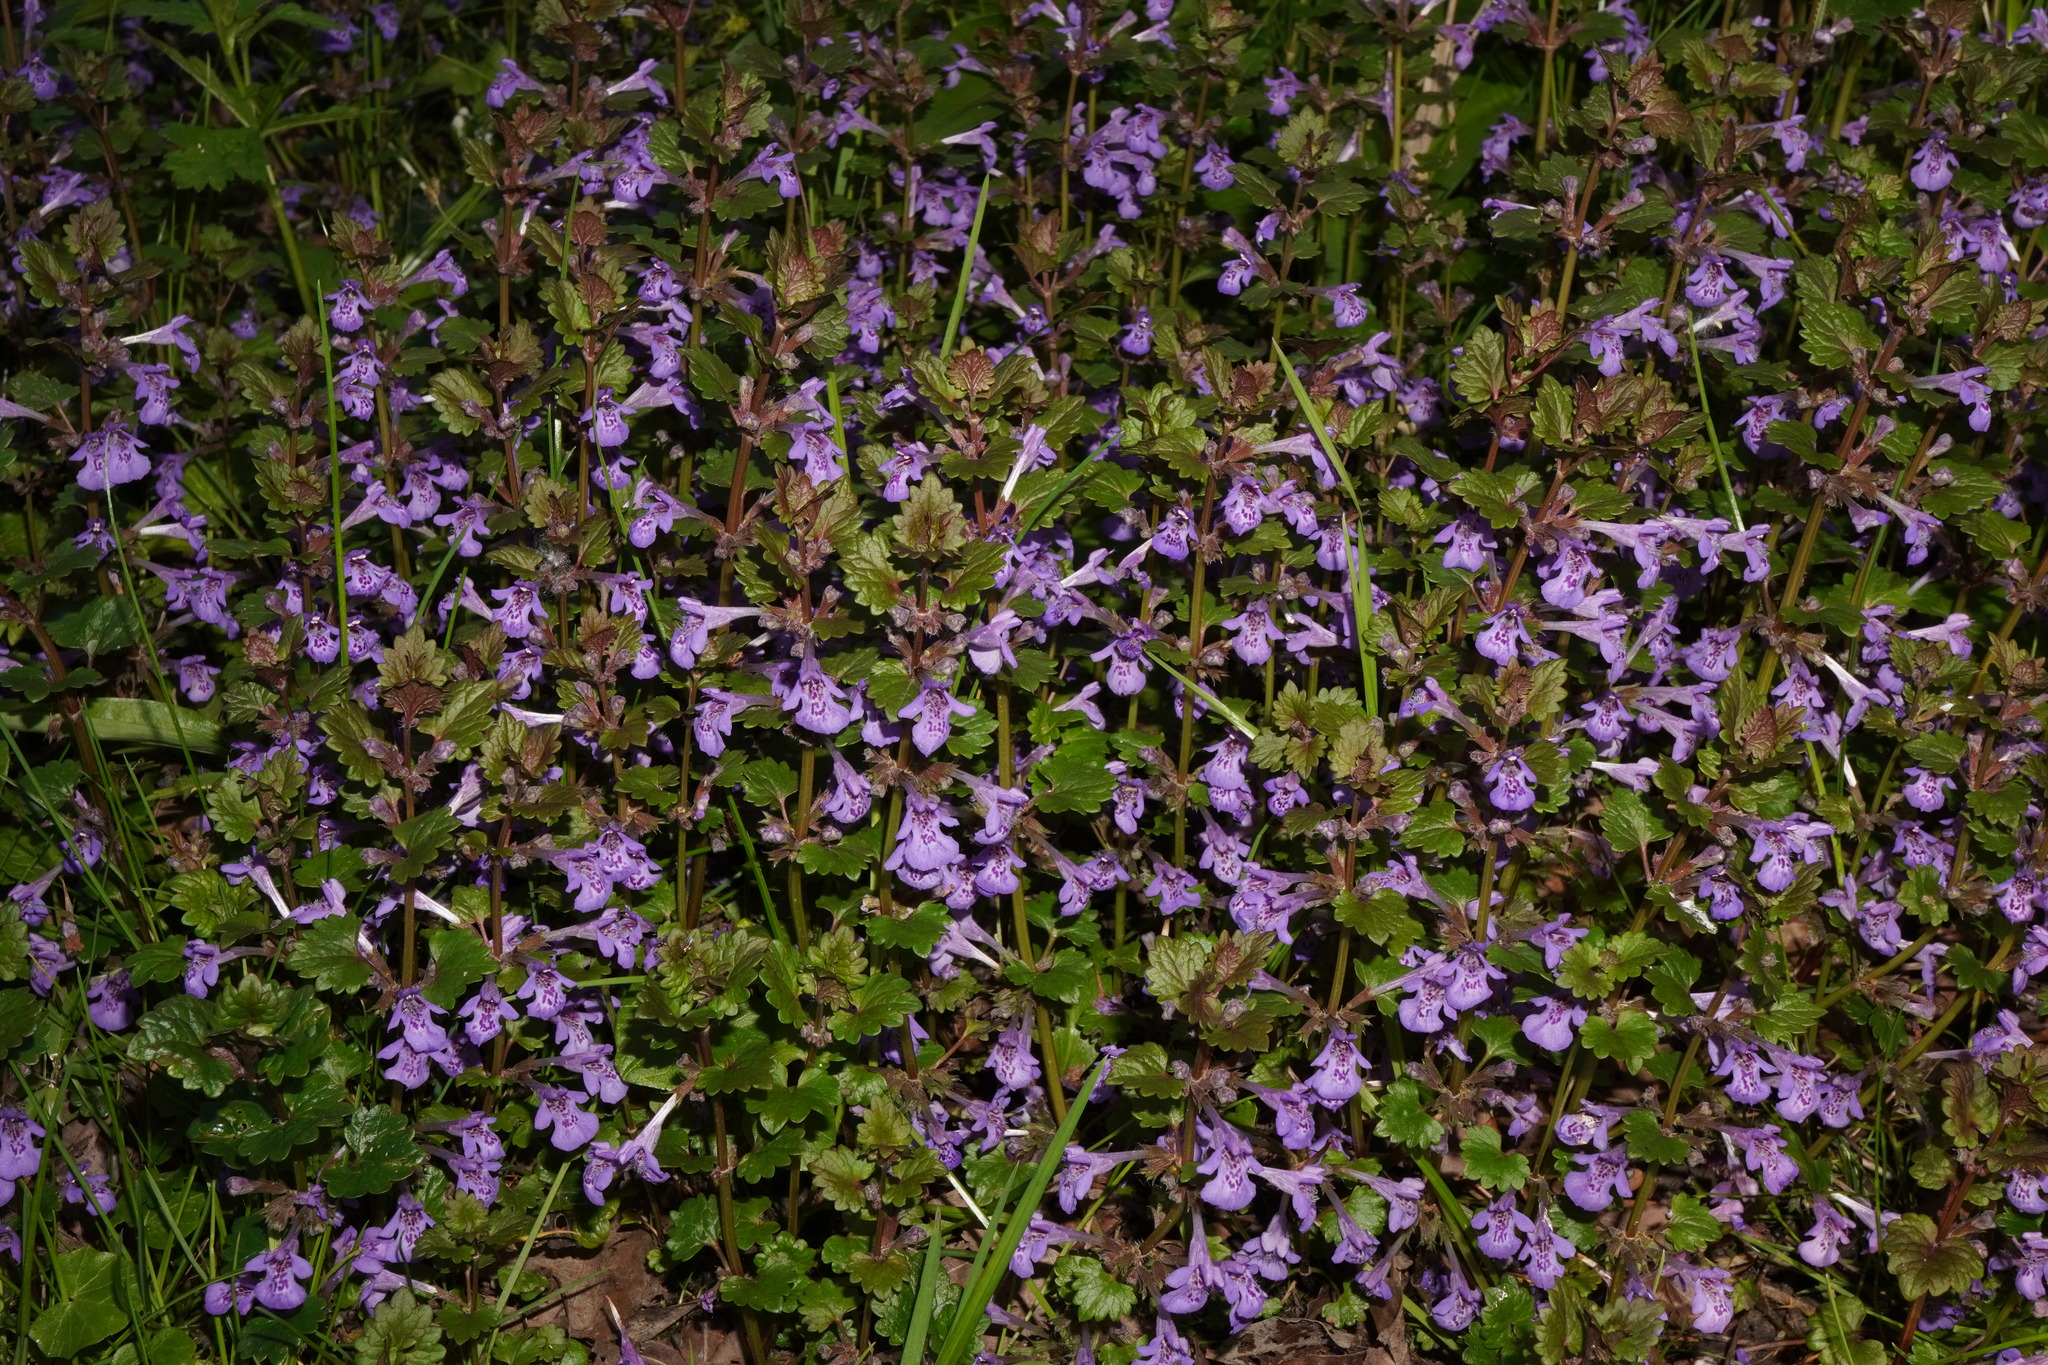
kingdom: Plantae
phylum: Tracheophyta
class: Magnoliopsida
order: Lamiales
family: Lamiaceae
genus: Glechoma
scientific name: Glechoma hederacea
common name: Ground ivy
